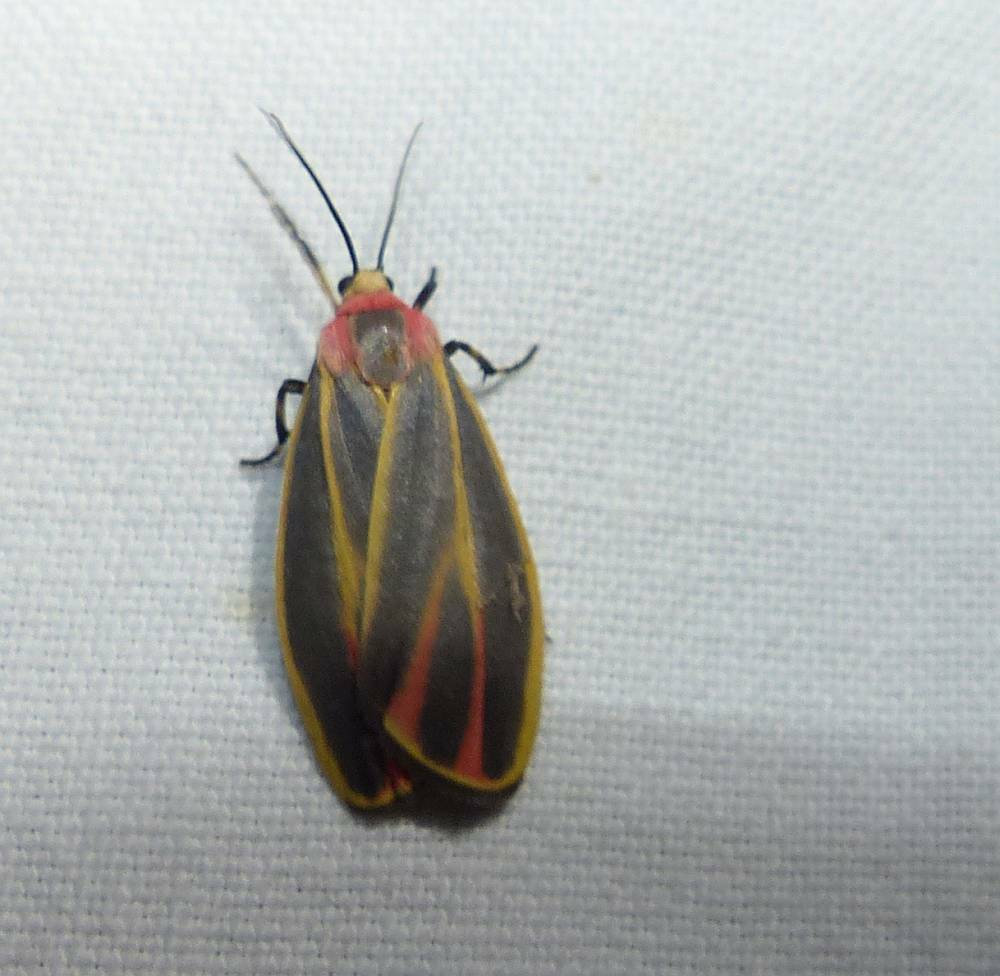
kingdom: Animalia
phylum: Arthropoda
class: Insecta
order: Lepidoptera
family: Erebidae
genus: Hypoprepia
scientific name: Hypoprepia fucosa
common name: Painted lichen moth
